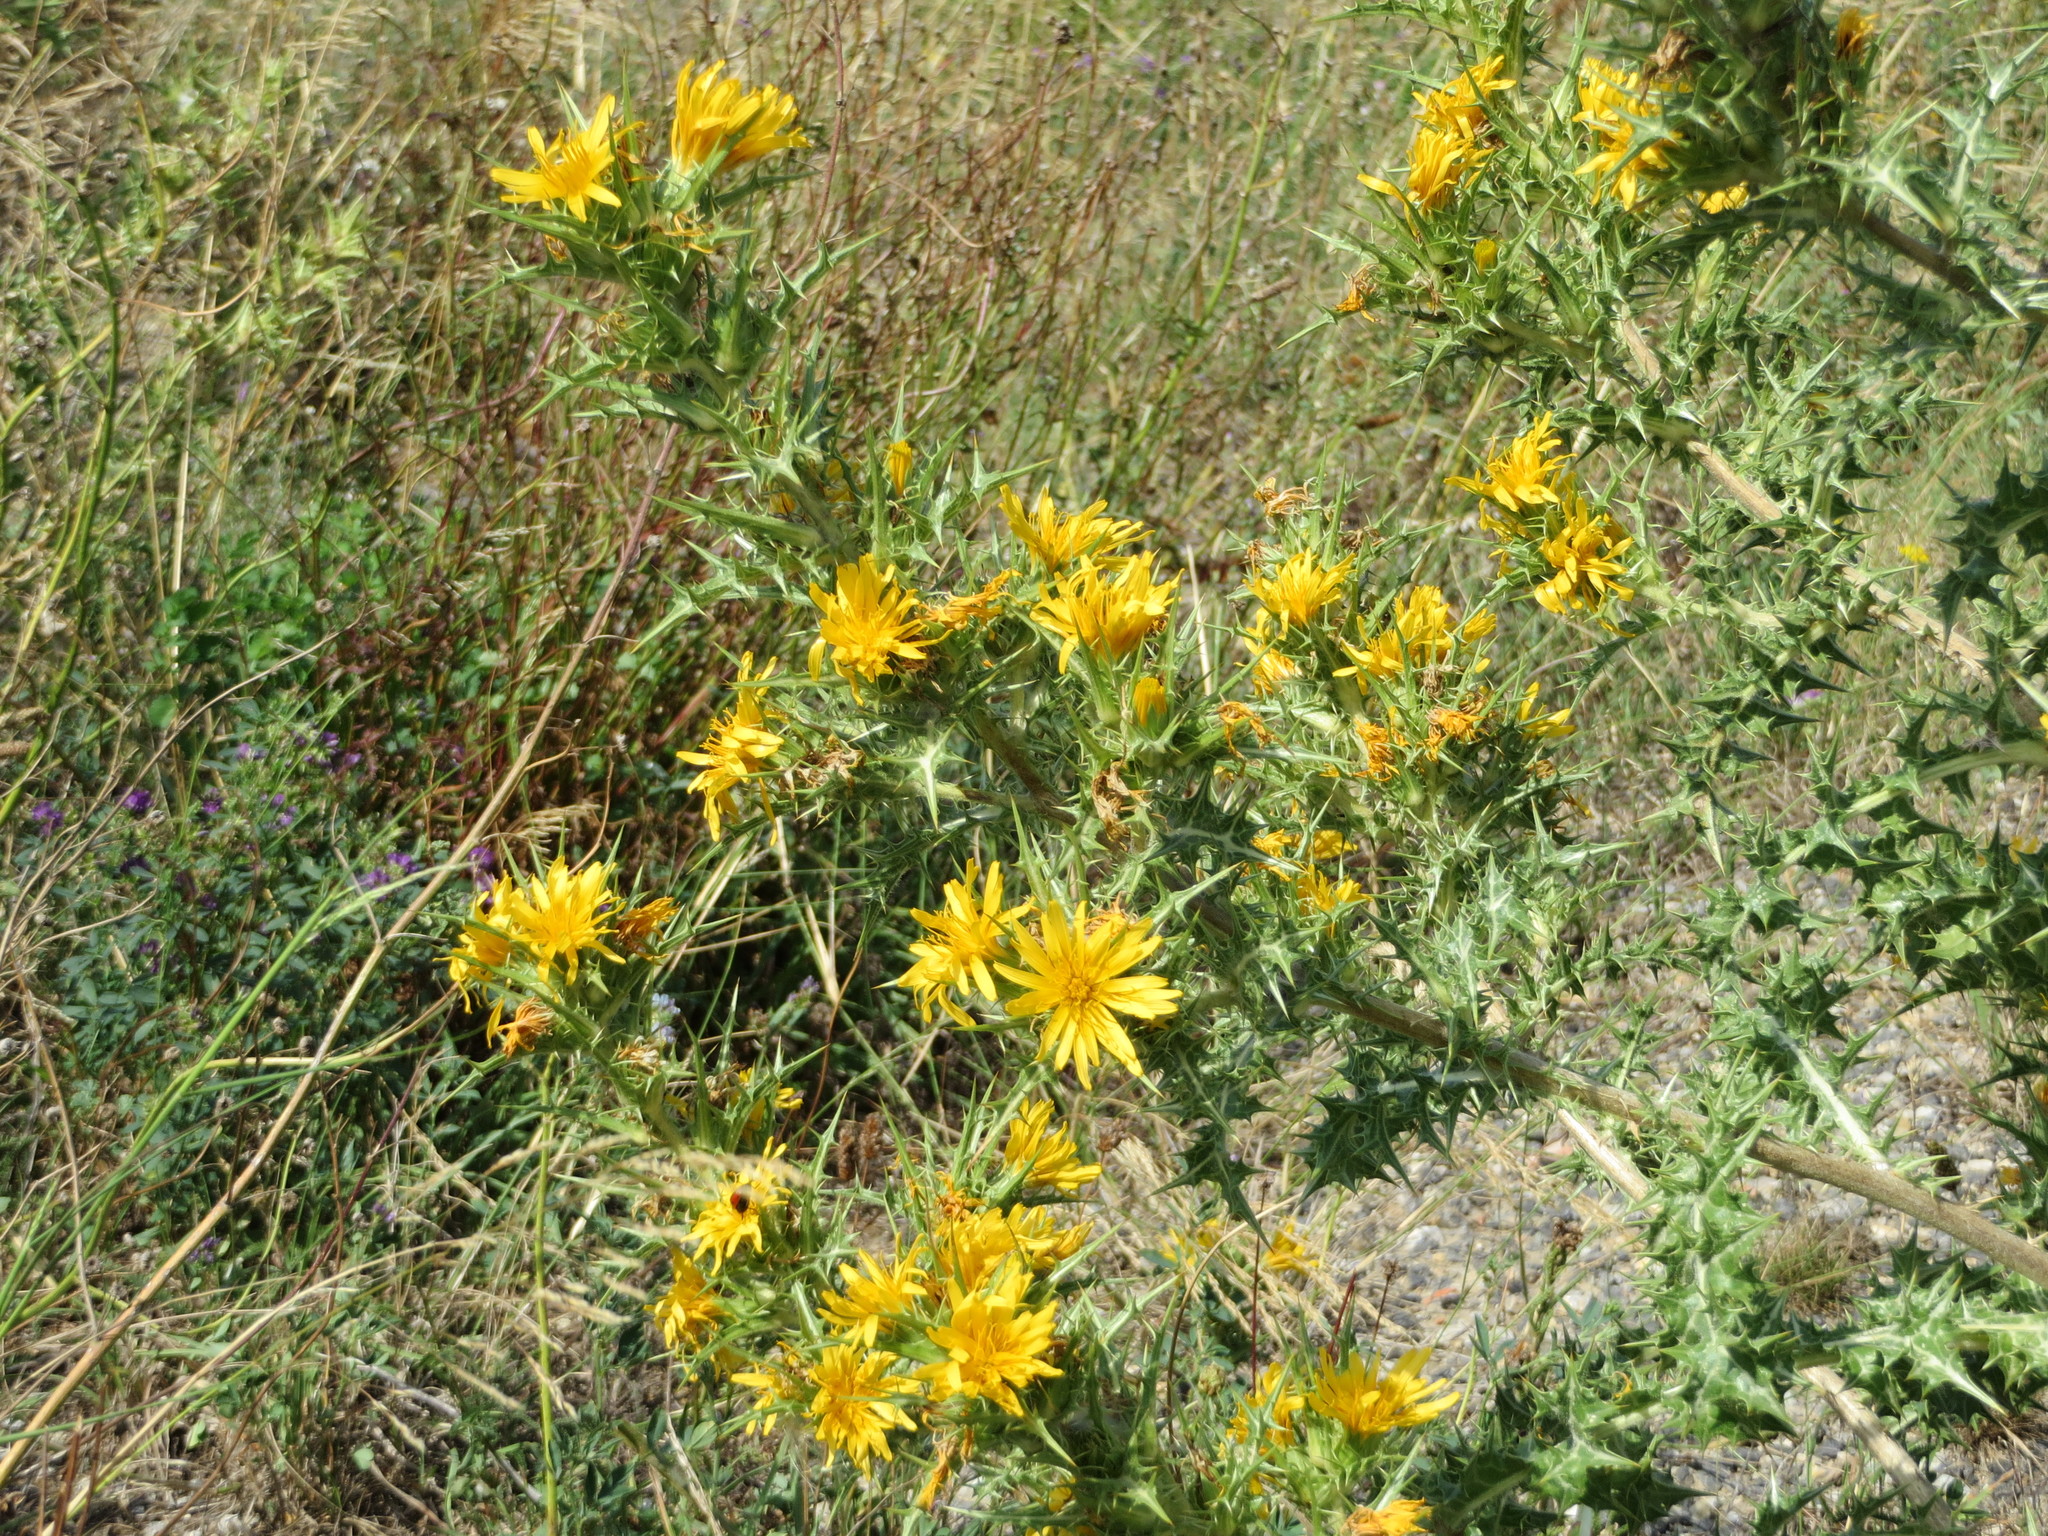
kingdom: Plantae
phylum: Tracheophyta
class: Magnoliopsida
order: Asterales
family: Asteraceae
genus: Scolymus
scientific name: Scolymus hispanicus
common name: Golden thistle
